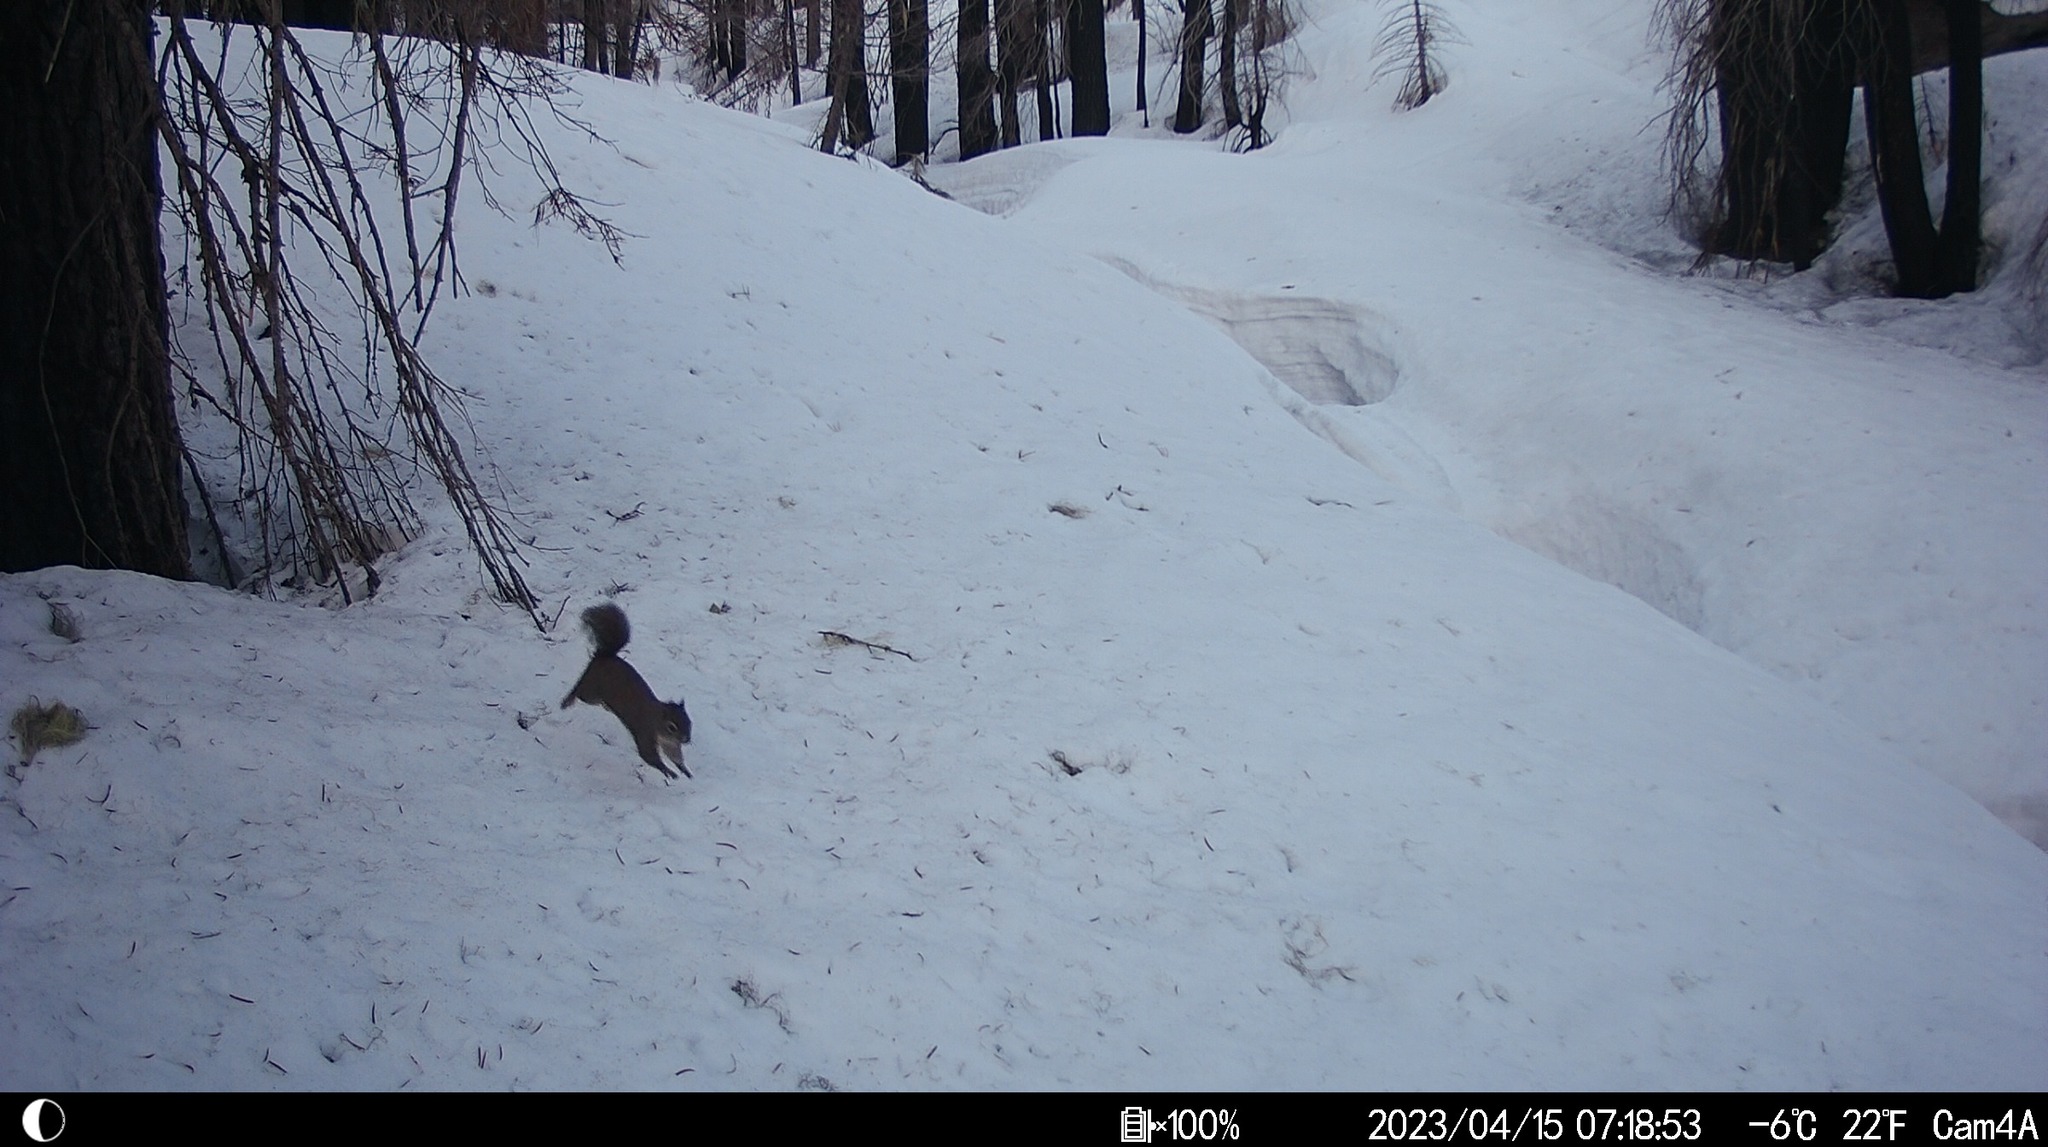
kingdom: Animalia
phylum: Chordata
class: Mammalia
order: Rodentia
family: Sciuridae
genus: Tamiasciurus
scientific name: Tamiasciurus douglasii
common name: Douglas's squirrel
